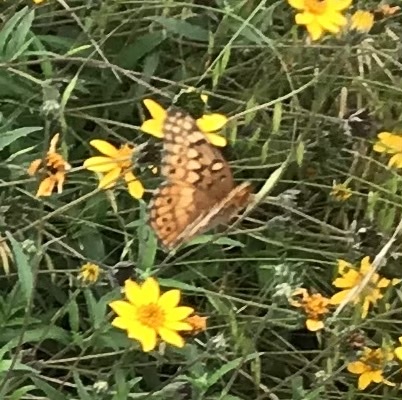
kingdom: Animalia
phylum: Arthropoda
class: Insecta
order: Lepidoptera
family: Nymphalidae
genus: Euptoieta
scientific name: Euptoieta claudia
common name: Variegated fritillary
